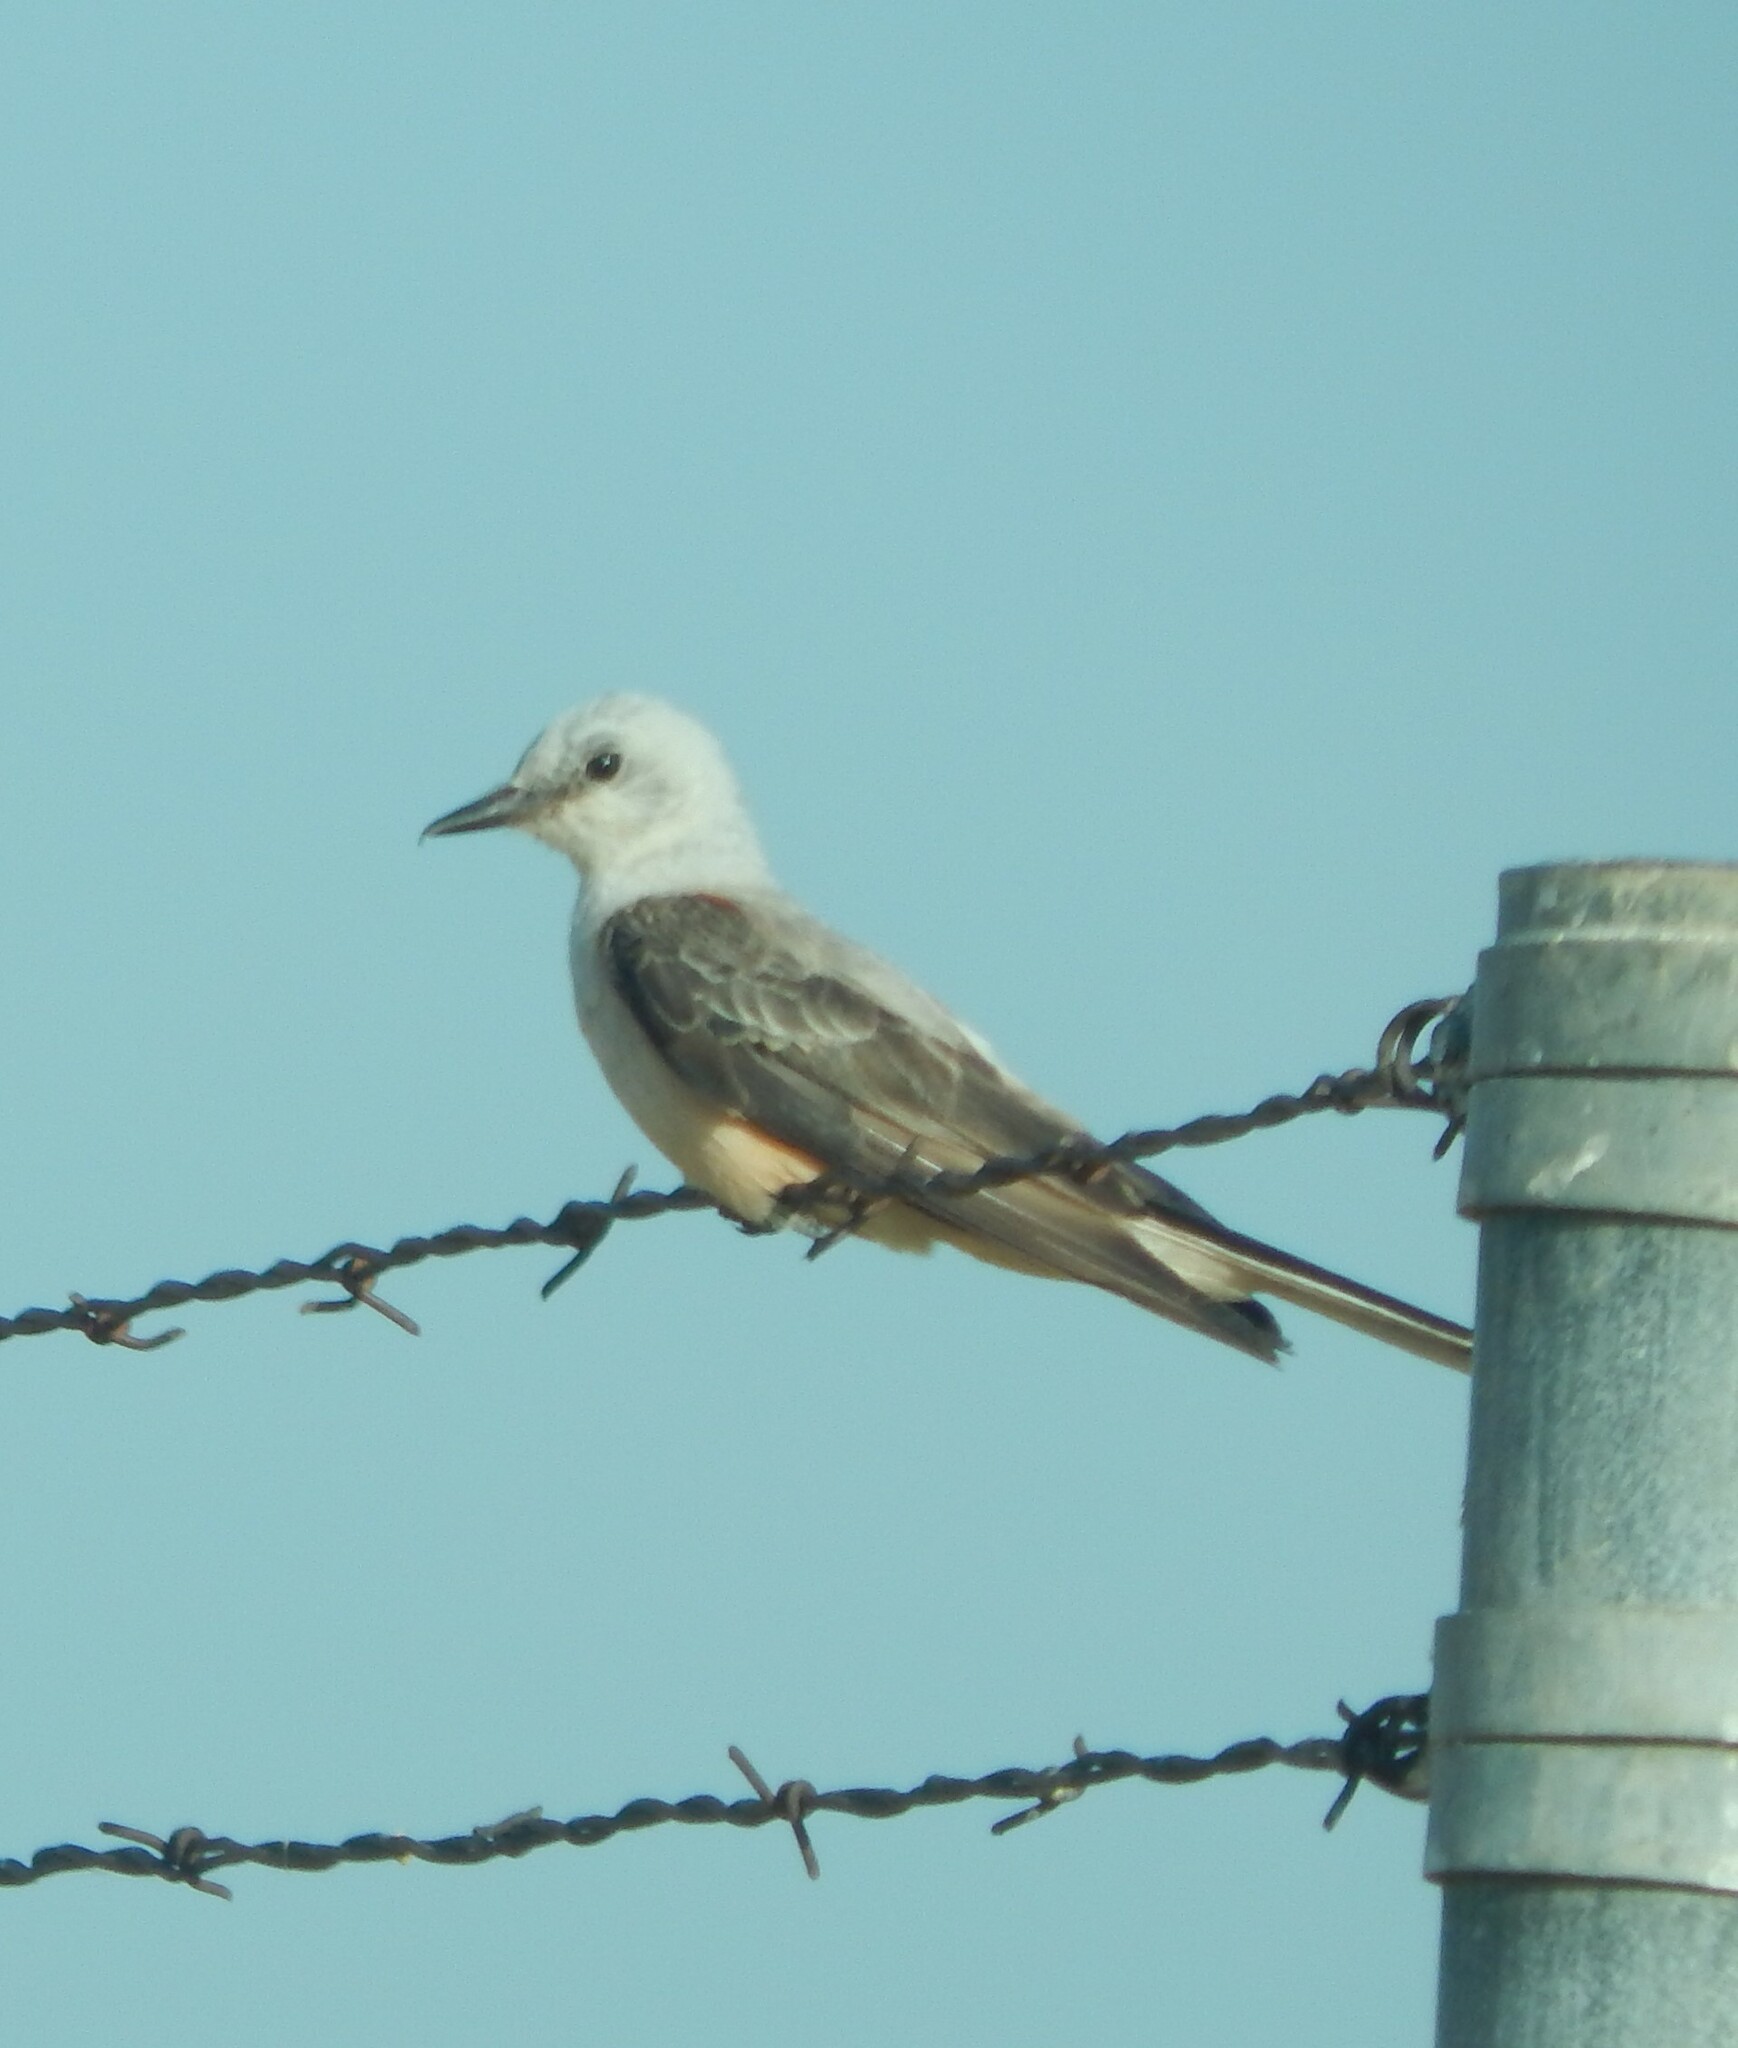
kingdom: Animalia
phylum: Chordata
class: Aves
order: Passeriformes
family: Tyrannidae
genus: Tyrannus
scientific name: Tyrannus forficatus
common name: Scissor-tailed flycatcher
